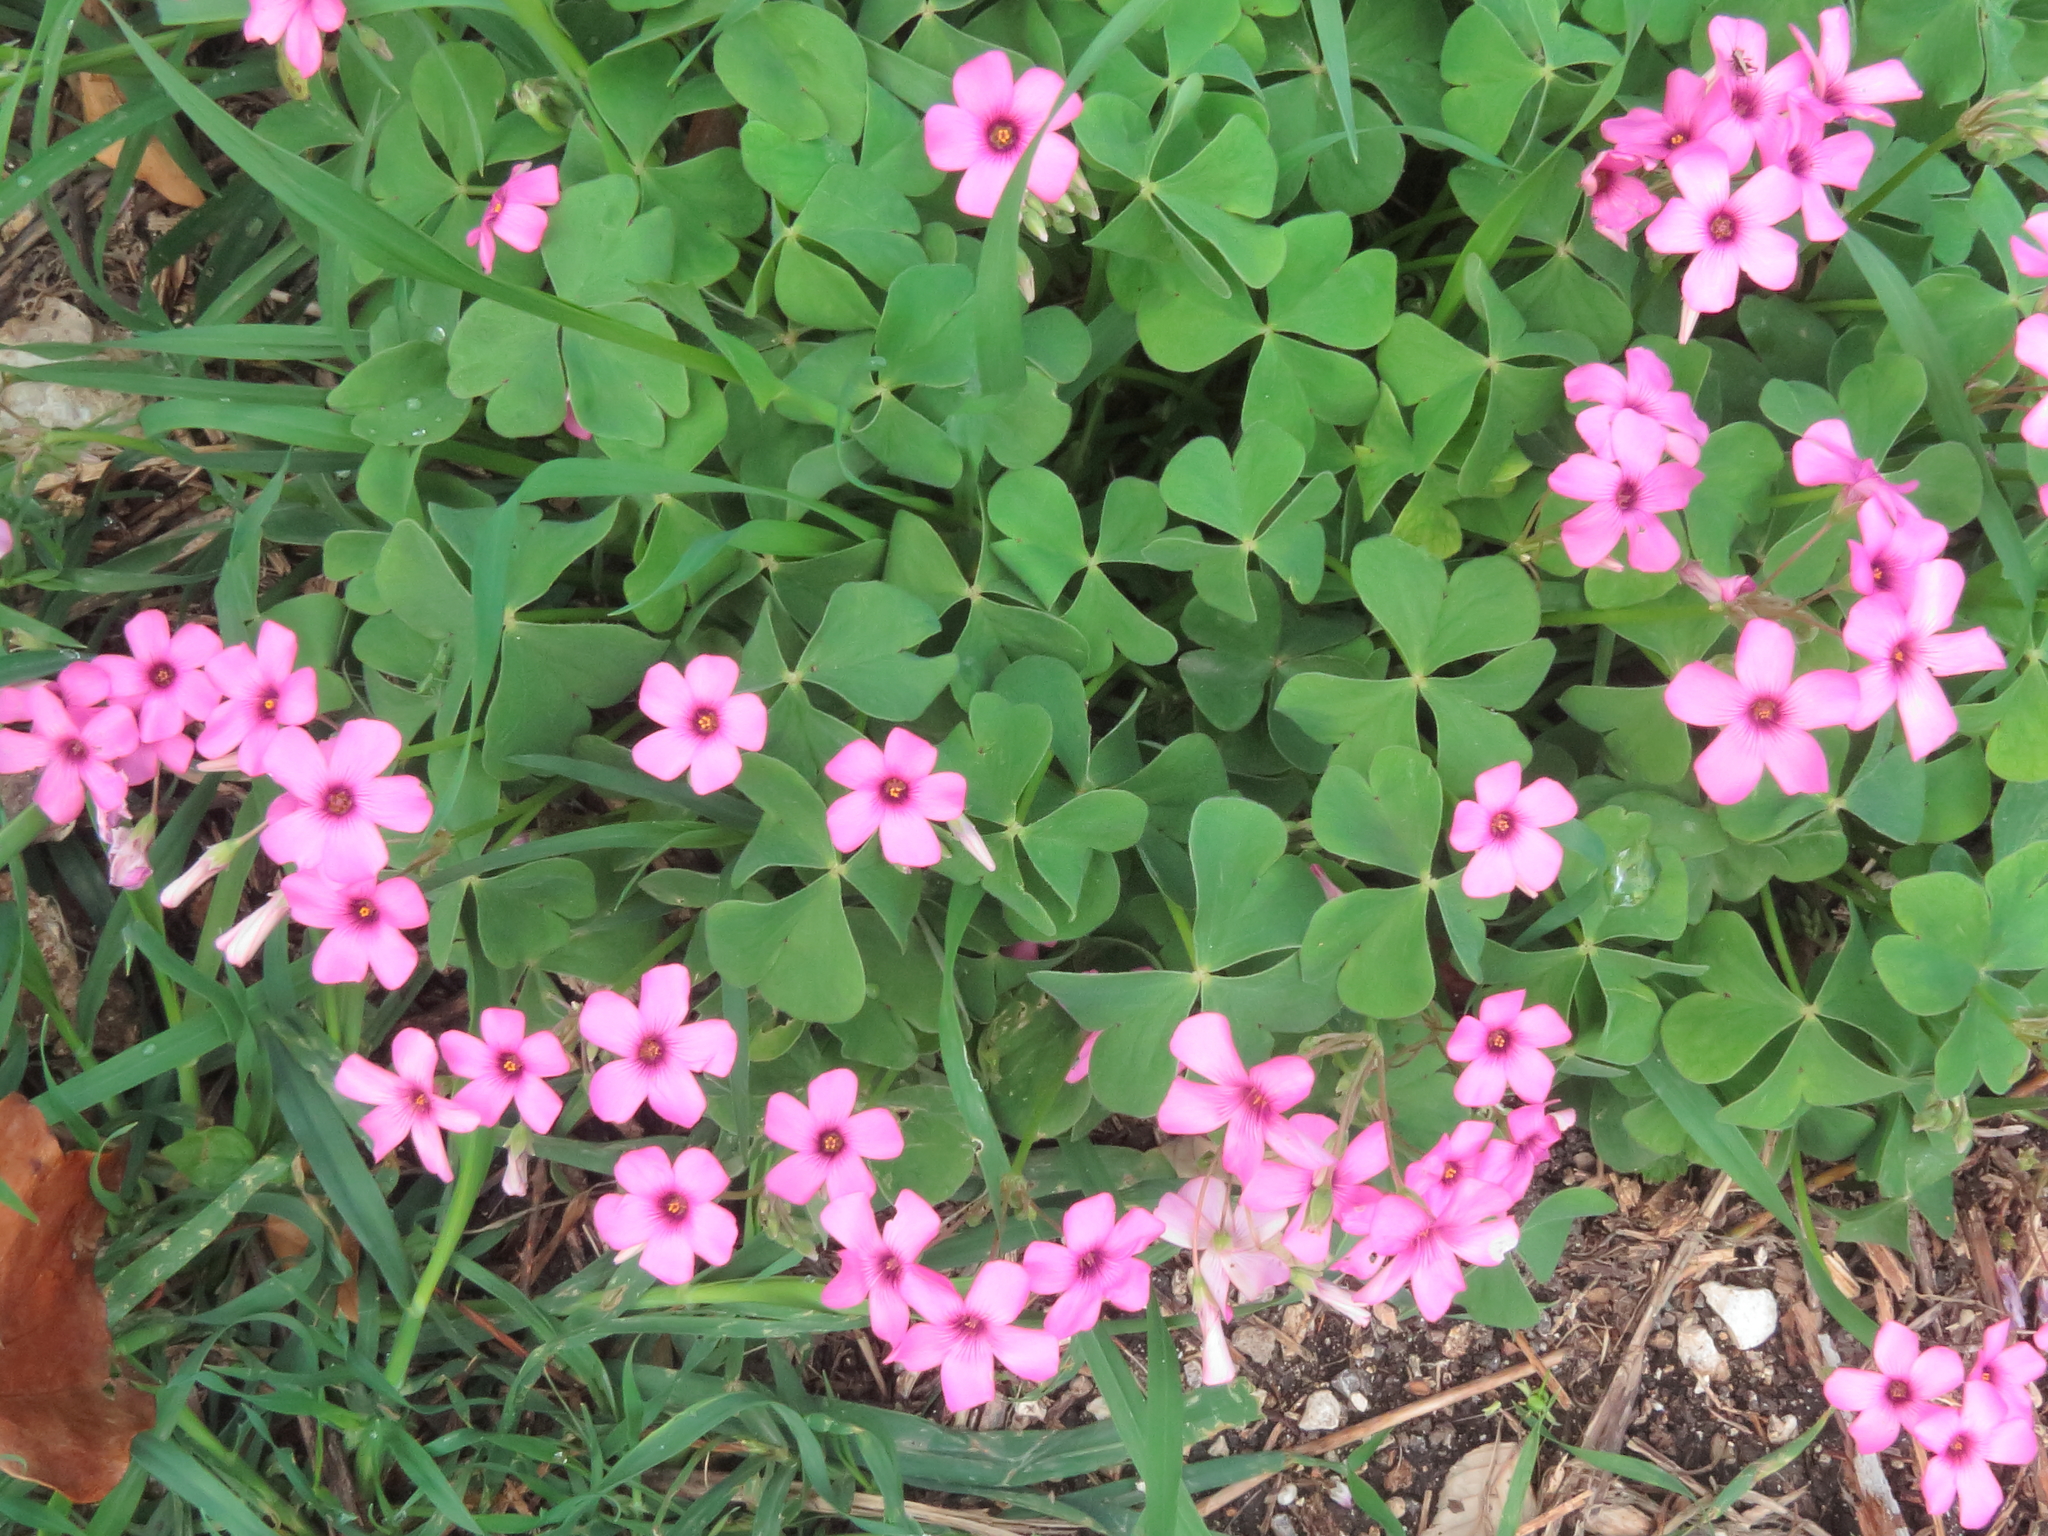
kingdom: Plantae
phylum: Tracheophyta
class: Magnoliopsida
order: Oxalidales
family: Oxalidaceae
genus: Oxalis
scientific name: Oxalis articulata
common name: Pink-sorrel
